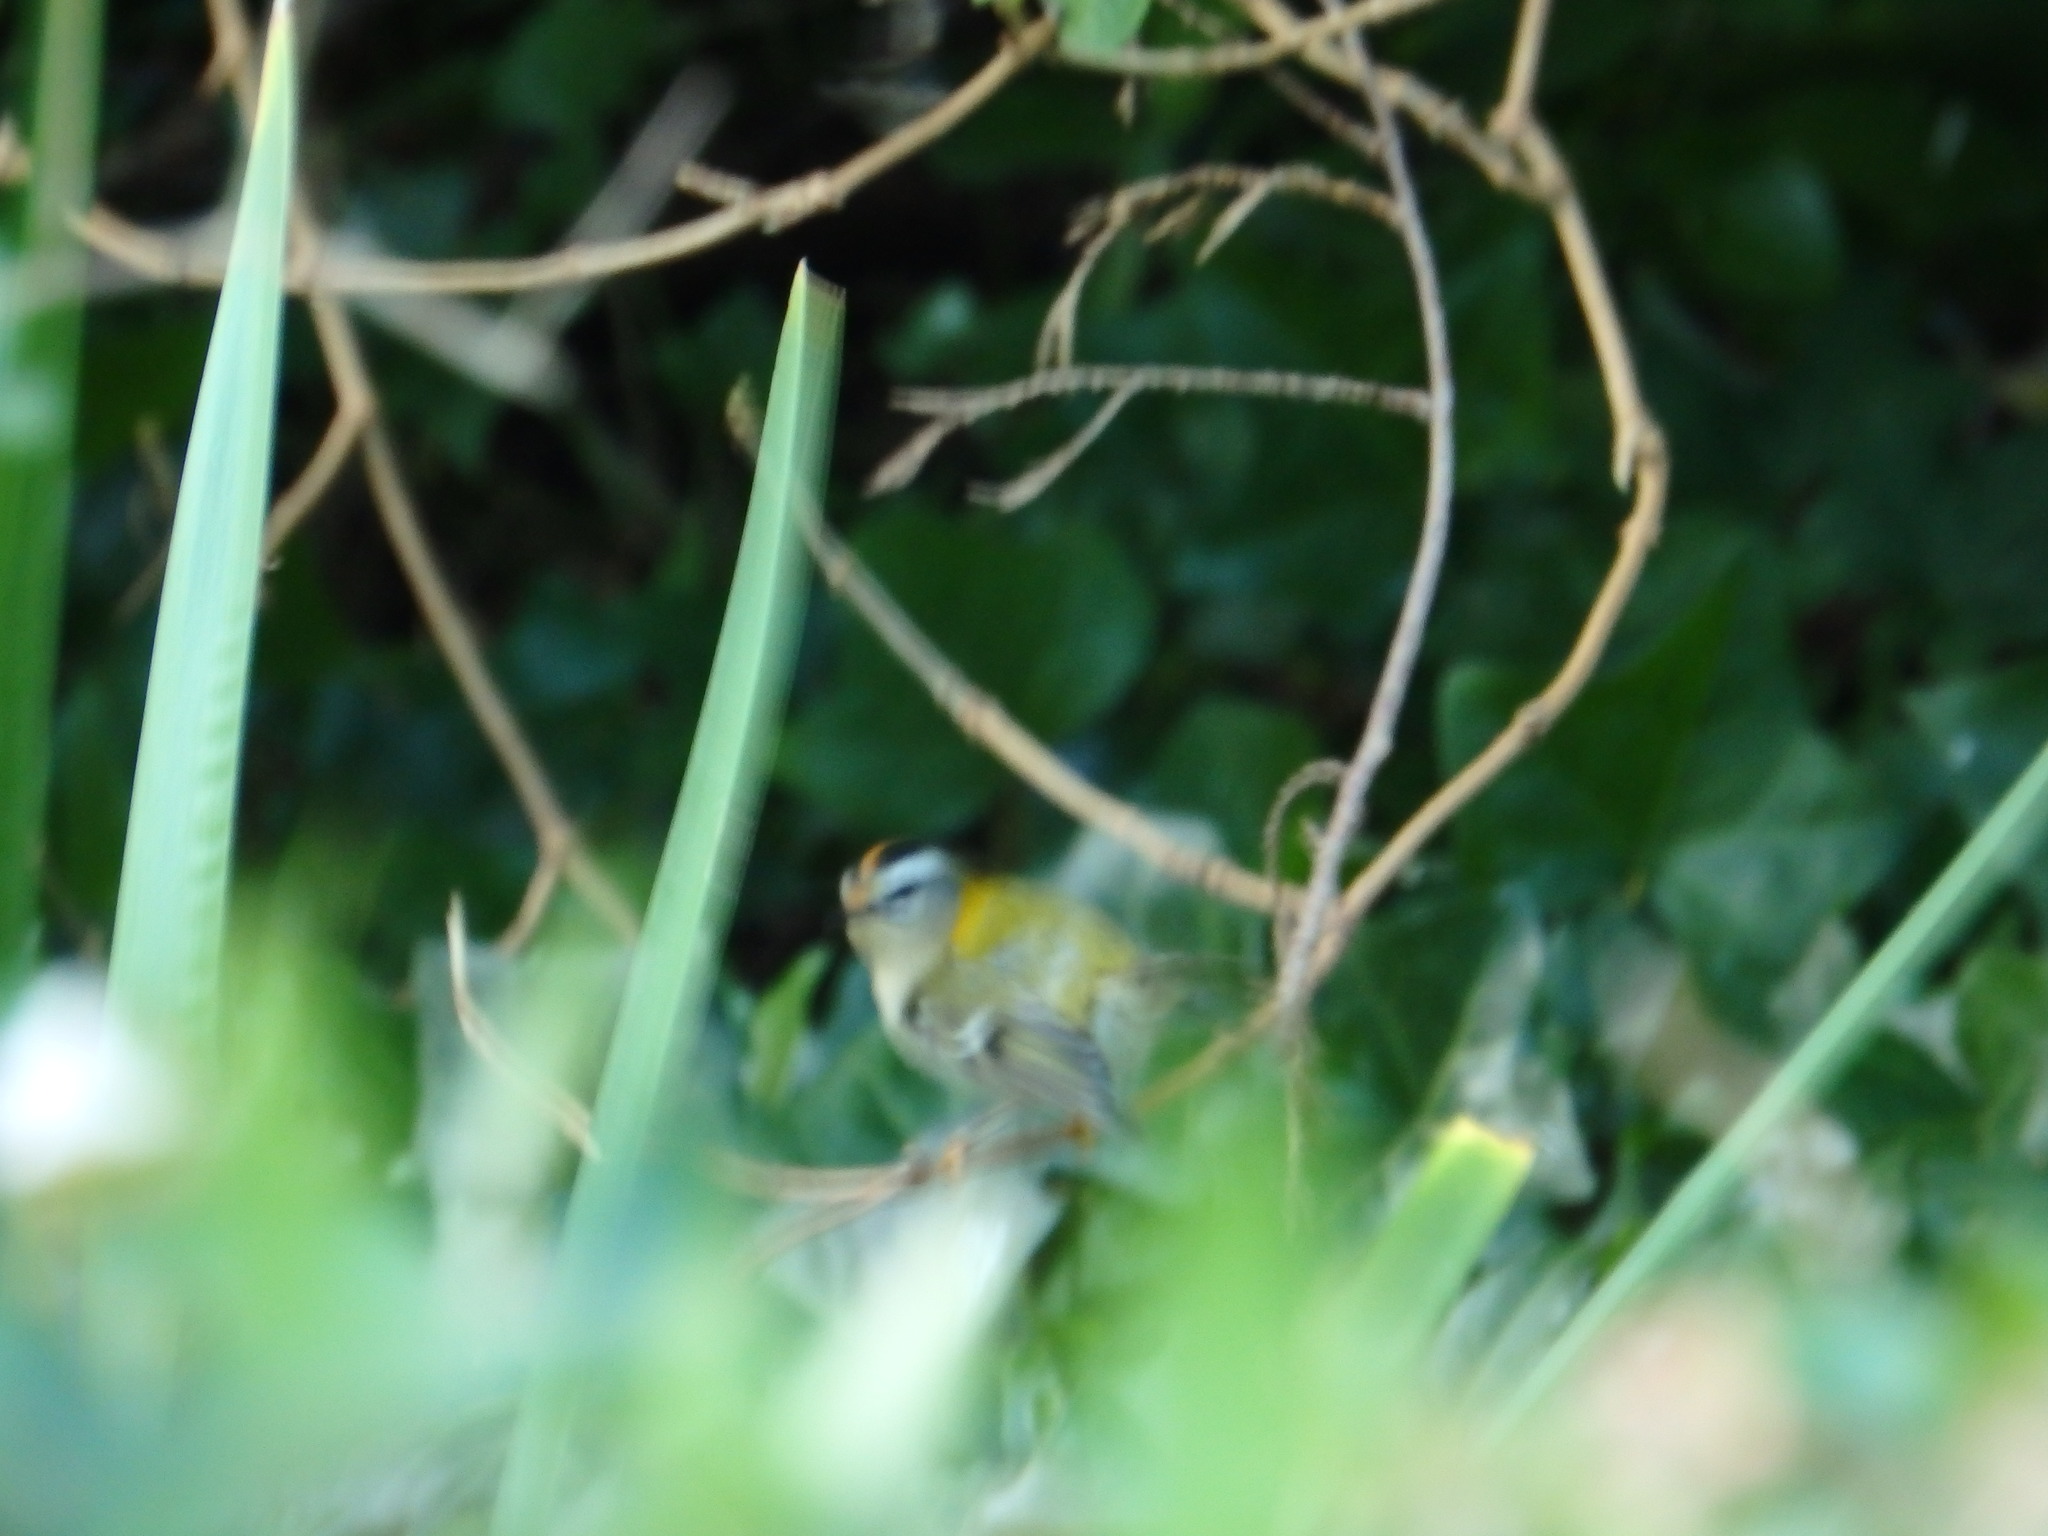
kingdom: Animalia
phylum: Chordata
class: Aves
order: Passeriformes
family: Regulidae
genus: Regulus
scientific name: Regulus ignicapilla
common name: Firecrest
